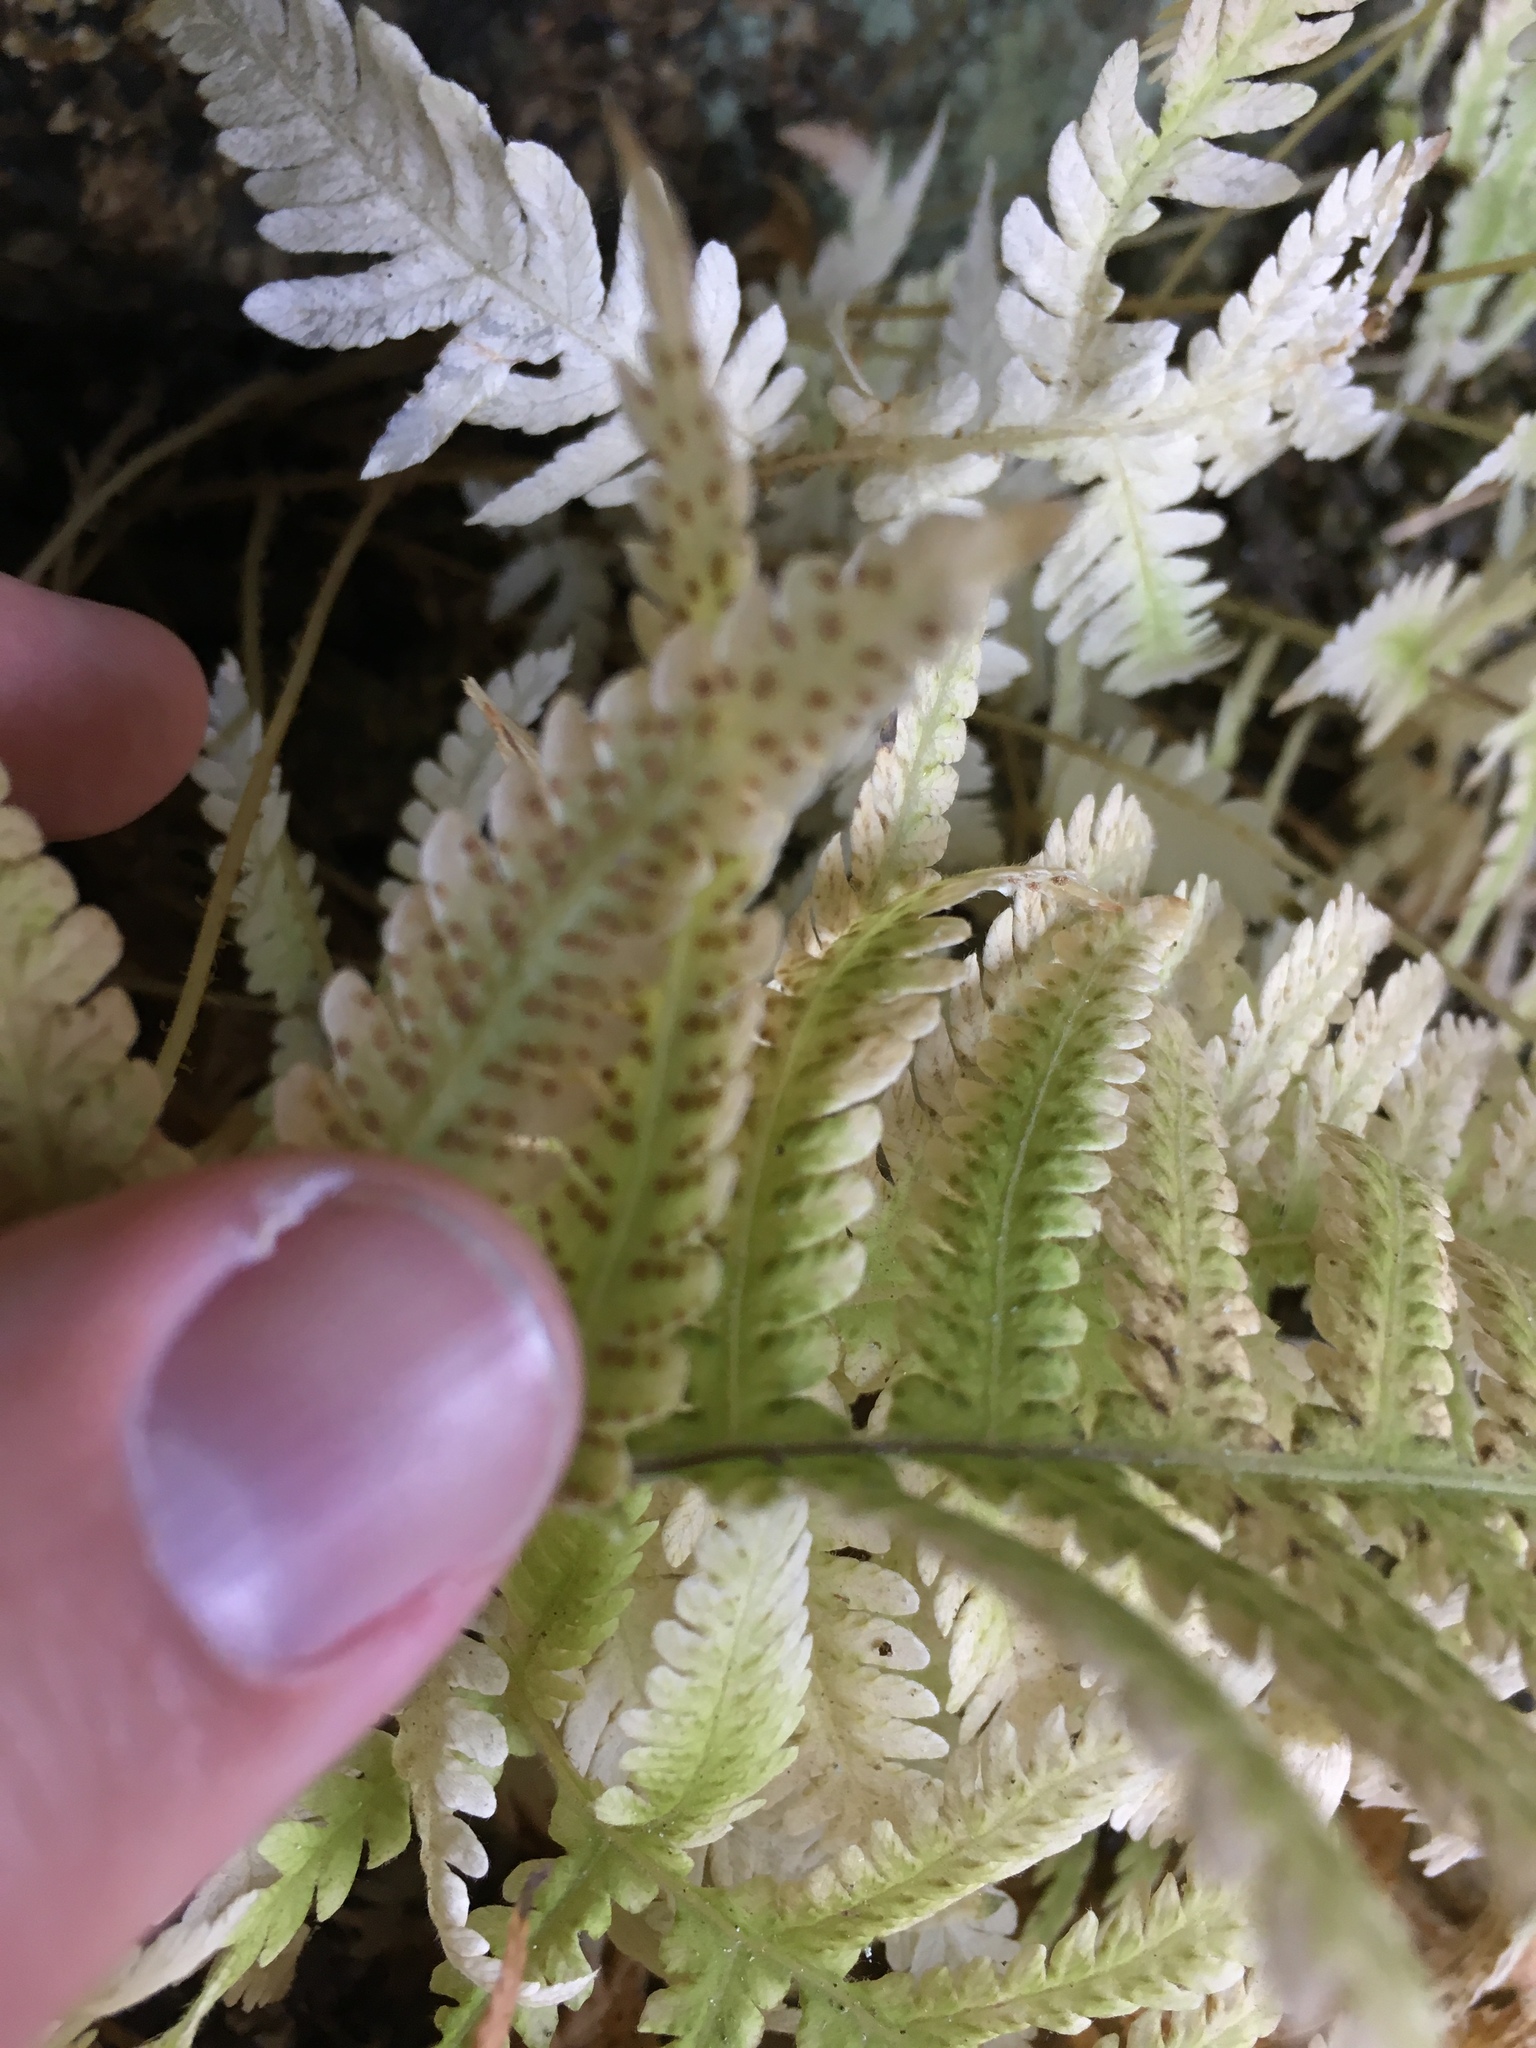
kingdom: Plantae
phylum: Tracheophyta
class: Polypodiopsida
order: Polypodiales
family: Thelypteridaceae
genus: Phegopteris
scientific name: Phegopteris connectilis
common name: Beech fern
